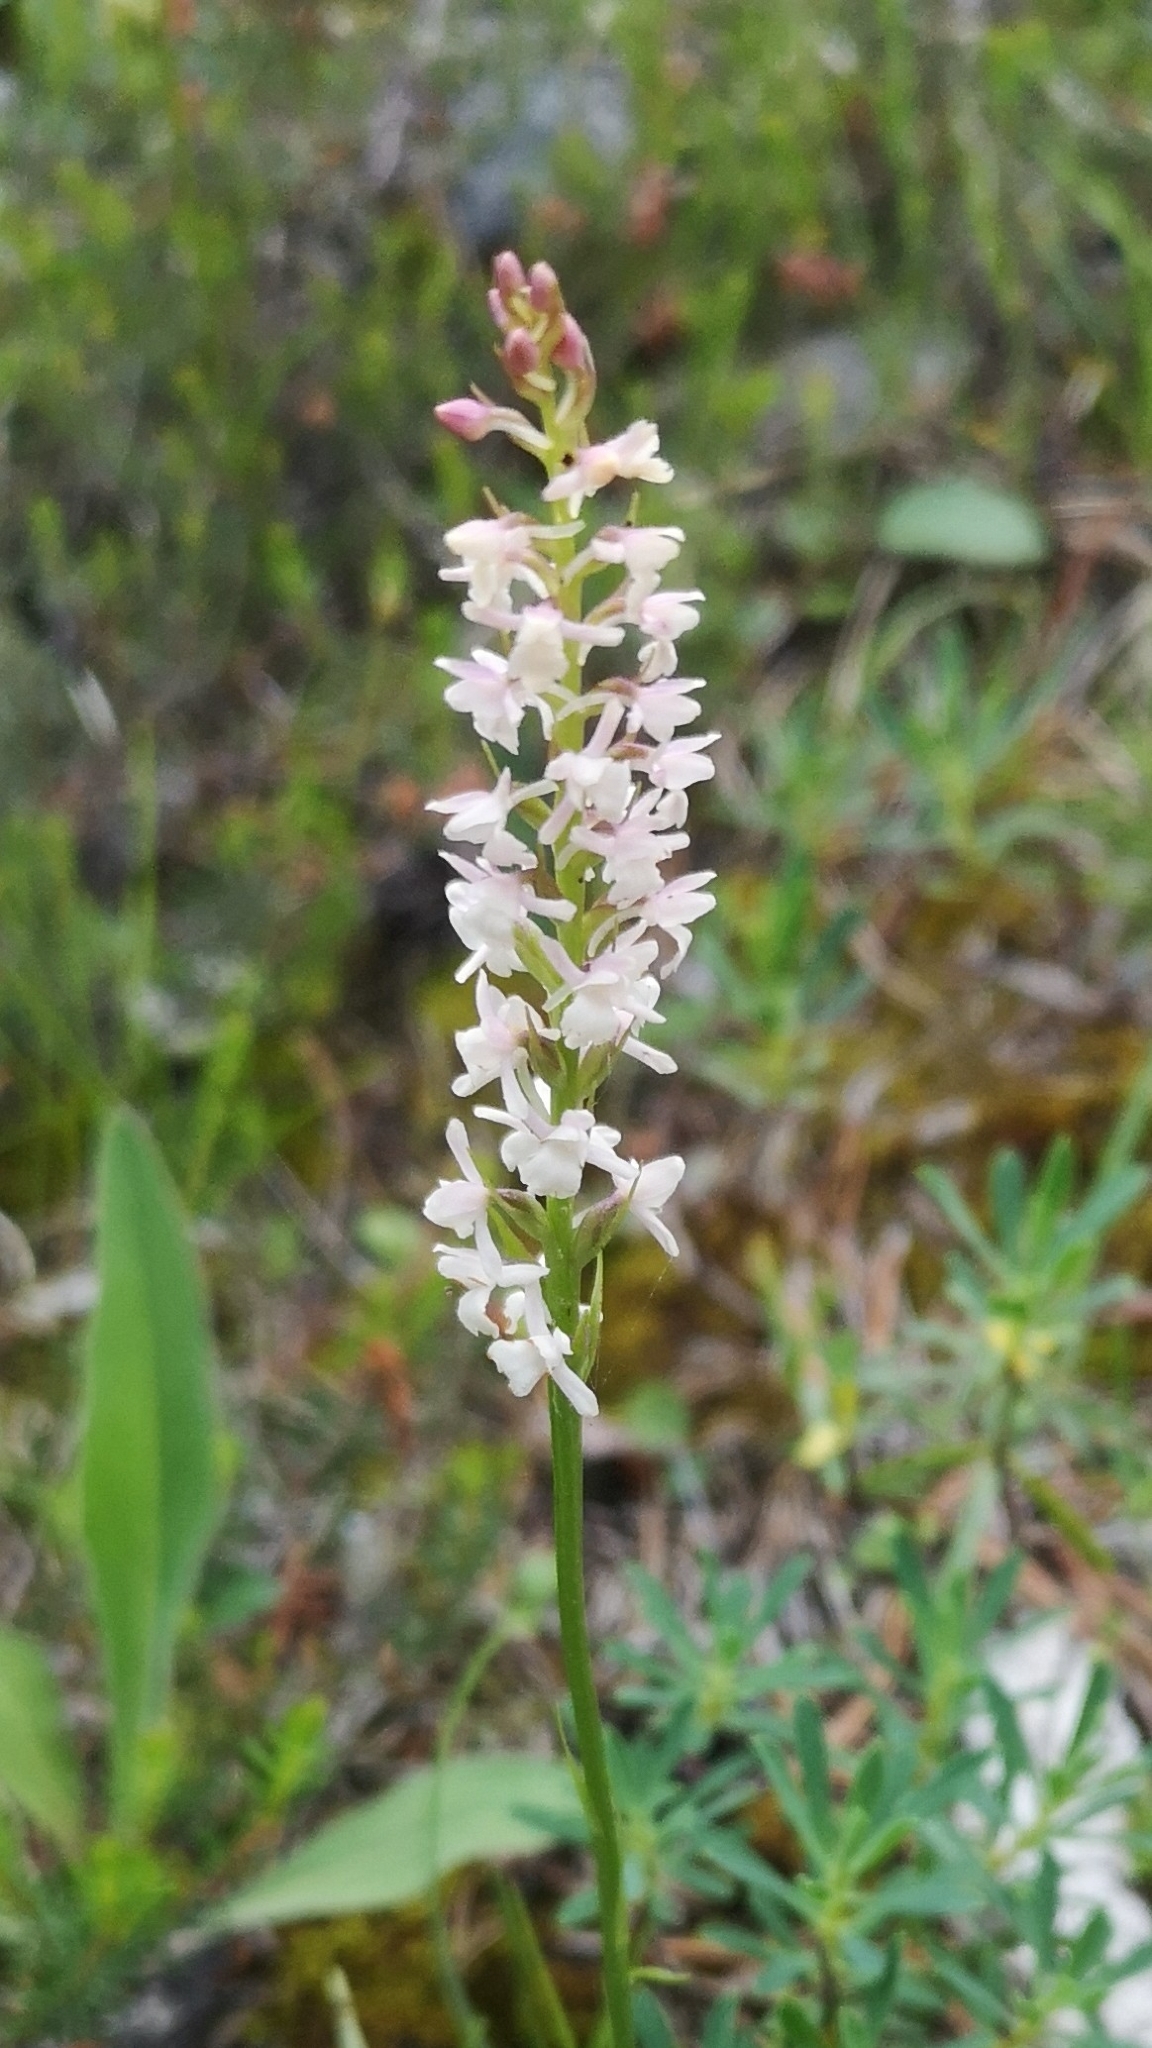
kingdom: Plantae
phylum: Tracheophyta
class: Liliopsida
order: Asparagales
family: Orchidaceae
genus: Gymnadenia
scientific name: Gymnadenia odoratissima
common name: Scented gymnadenia
